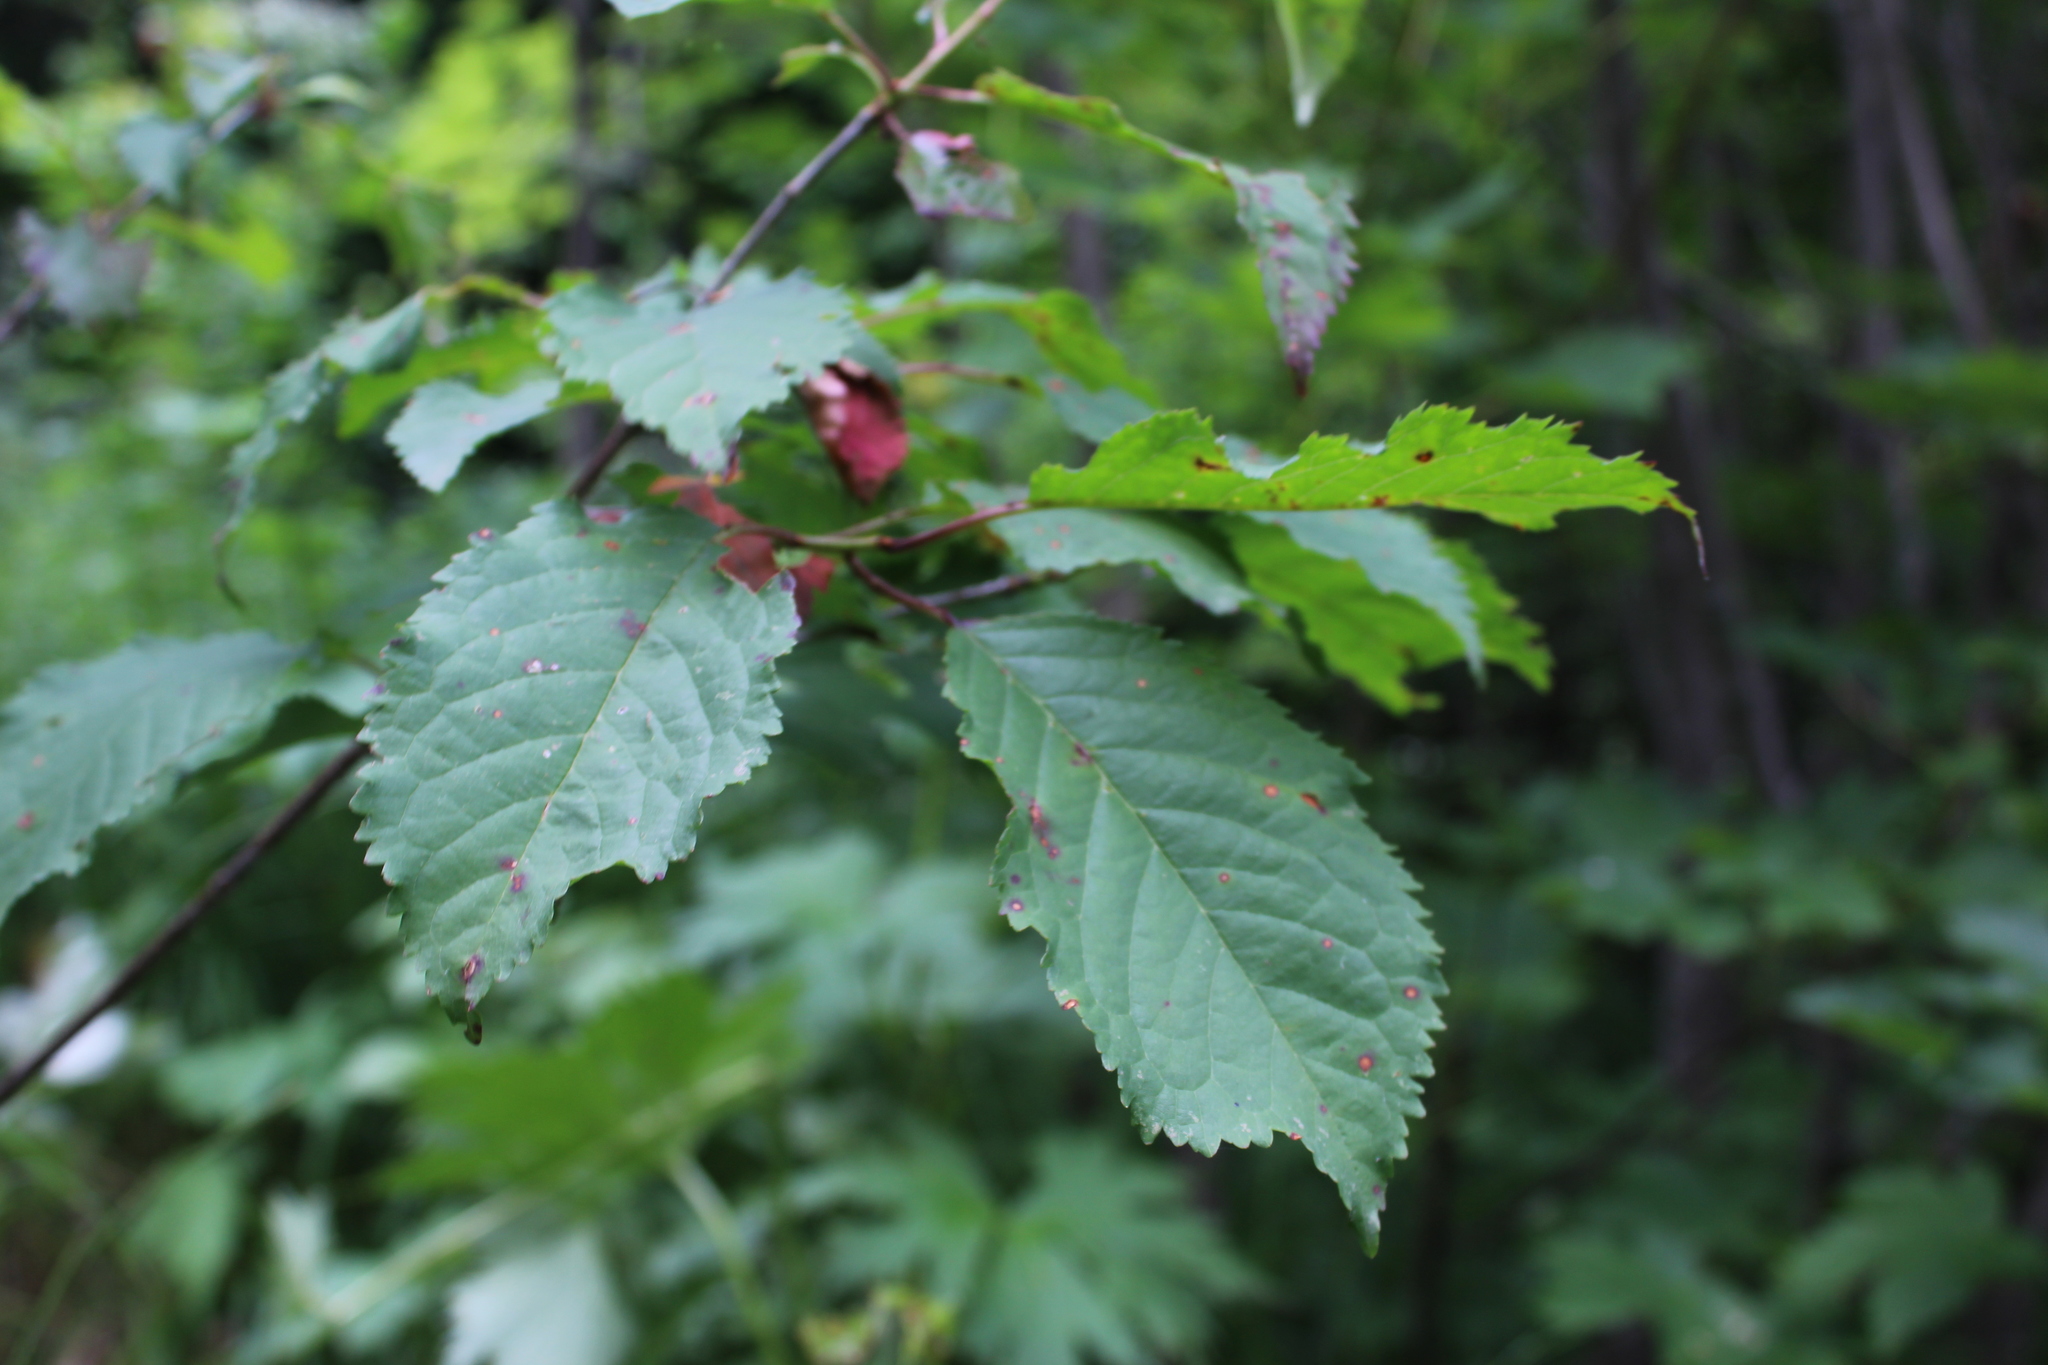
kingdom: Plantae
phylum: Tracheophyta
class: Magnoliopsida
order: Rosales
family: Rosaceae
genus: Prunus
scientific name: Prunus avium
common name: Sweet cherry
